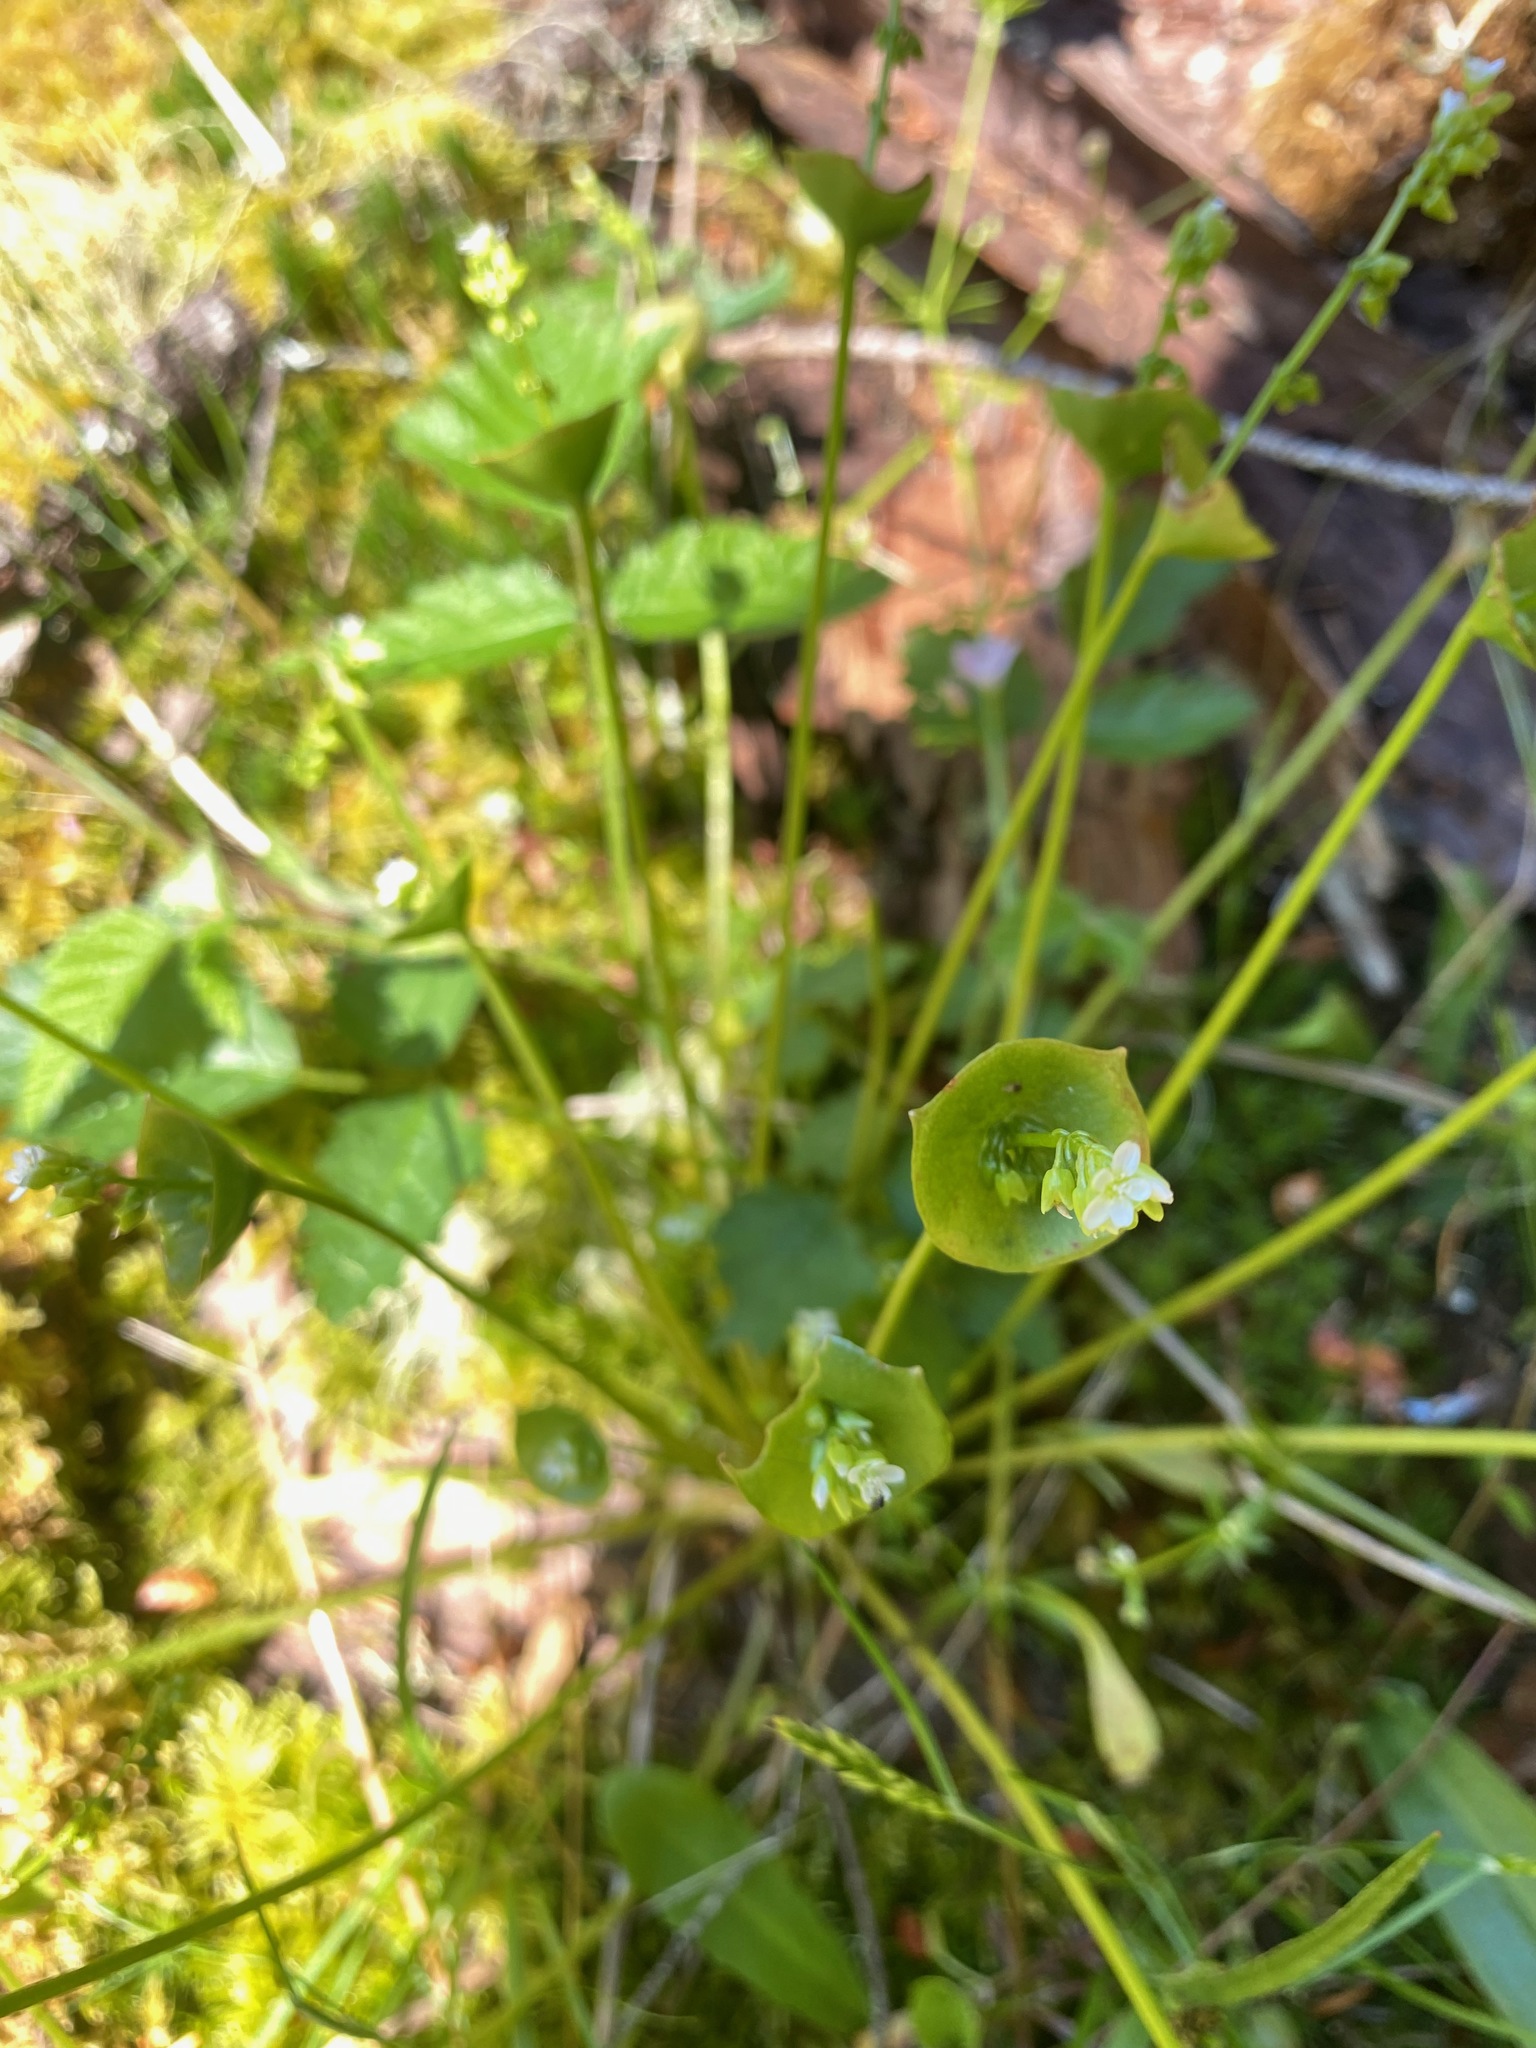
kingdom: Plantae
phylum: Tracheophyta
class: Magnoliopsida
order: Caryophyllales
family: Montiaceae
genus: Claytonia
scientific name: Claytonia perfoliata
